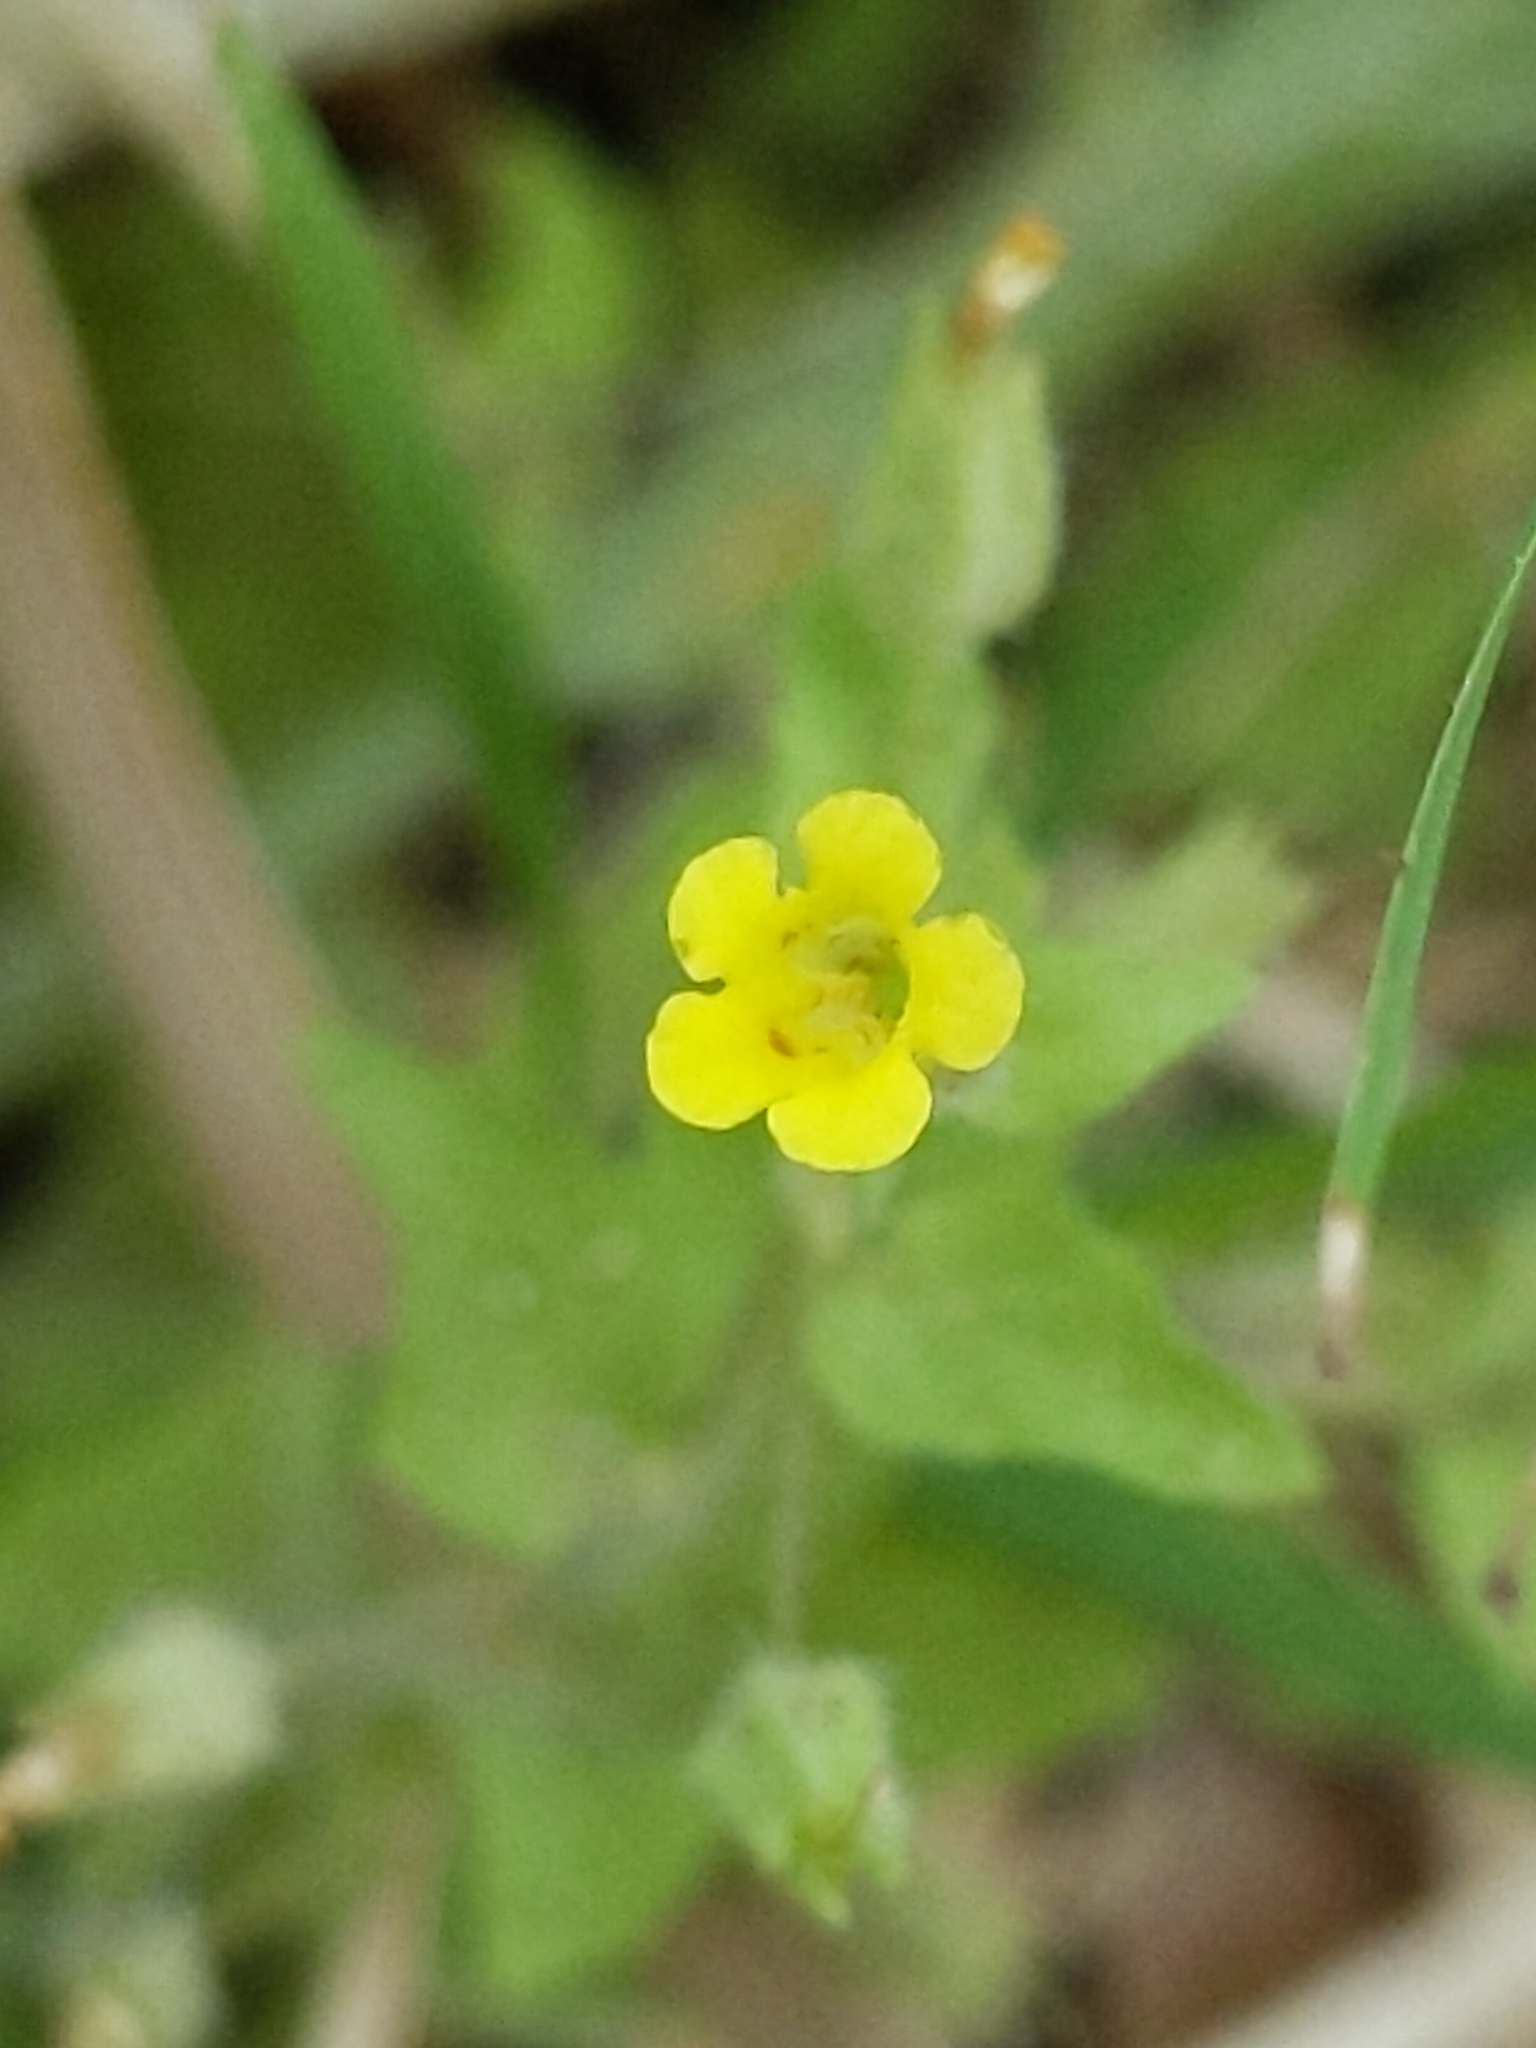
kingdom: Plantae
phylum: Tracheophyta
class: Magnoliopsida
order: Lamiales
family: Phrymaceae
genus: Erythranthe
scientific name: Erythranthe floribunda
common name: Floriferous monkeyflower
